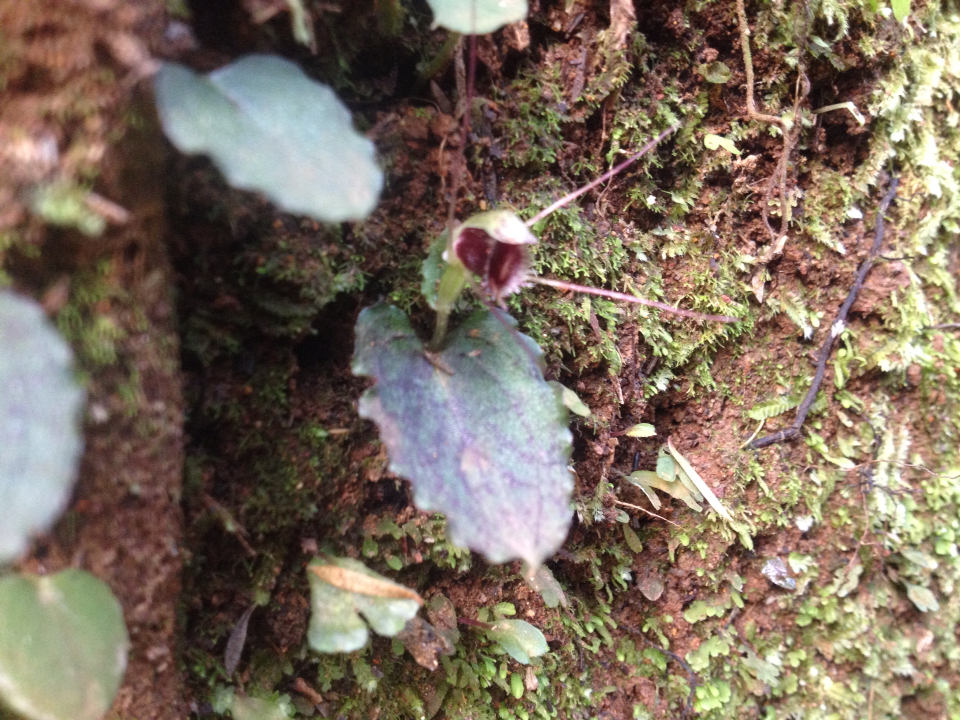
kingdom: Plantae
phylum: Tracheophyta
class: Liliopsida
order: Asparagales
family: Orchidaceae
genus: Corybas
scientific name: Corybas oblongus
